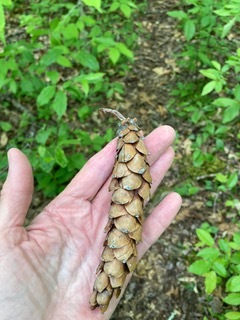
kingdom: Plantae
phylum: Tracheophyta
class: Pinopsida
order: Pinales
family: Pinaceae
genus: Pinus
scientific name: Pinus strobus
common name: Weymouth pine
